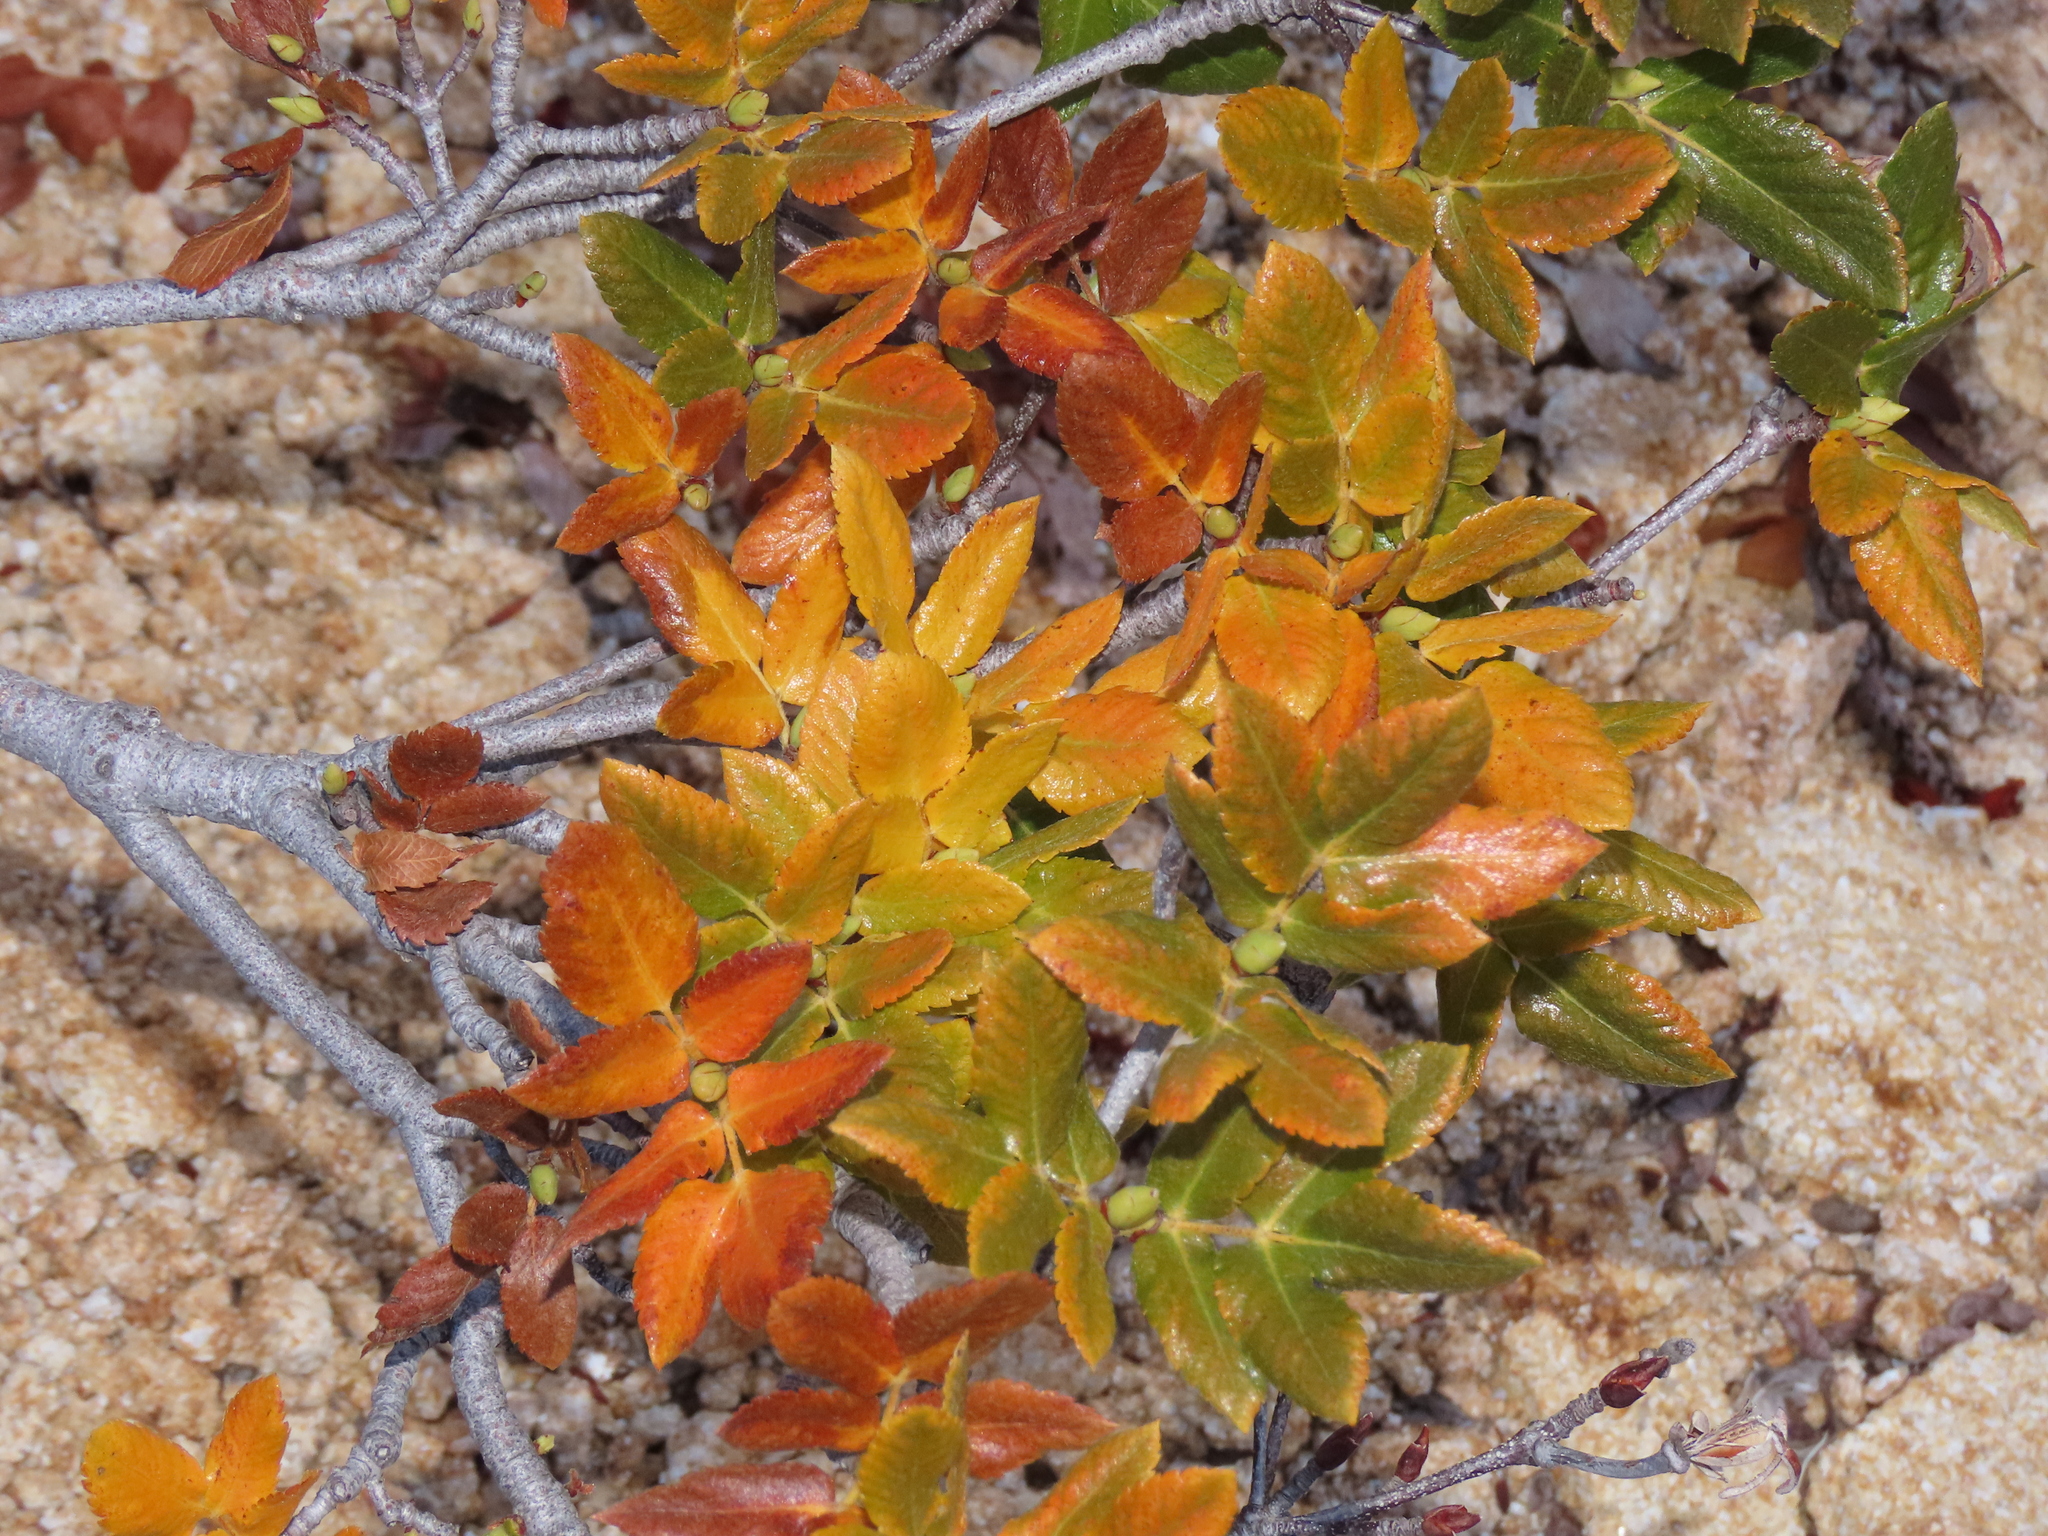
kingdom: Plantae
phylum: Tracheophyta
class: Magnoliopsida
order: Oxalidales
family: Cunoniaceae
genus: Eucryphia
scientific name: Eucryphia glutinosa
